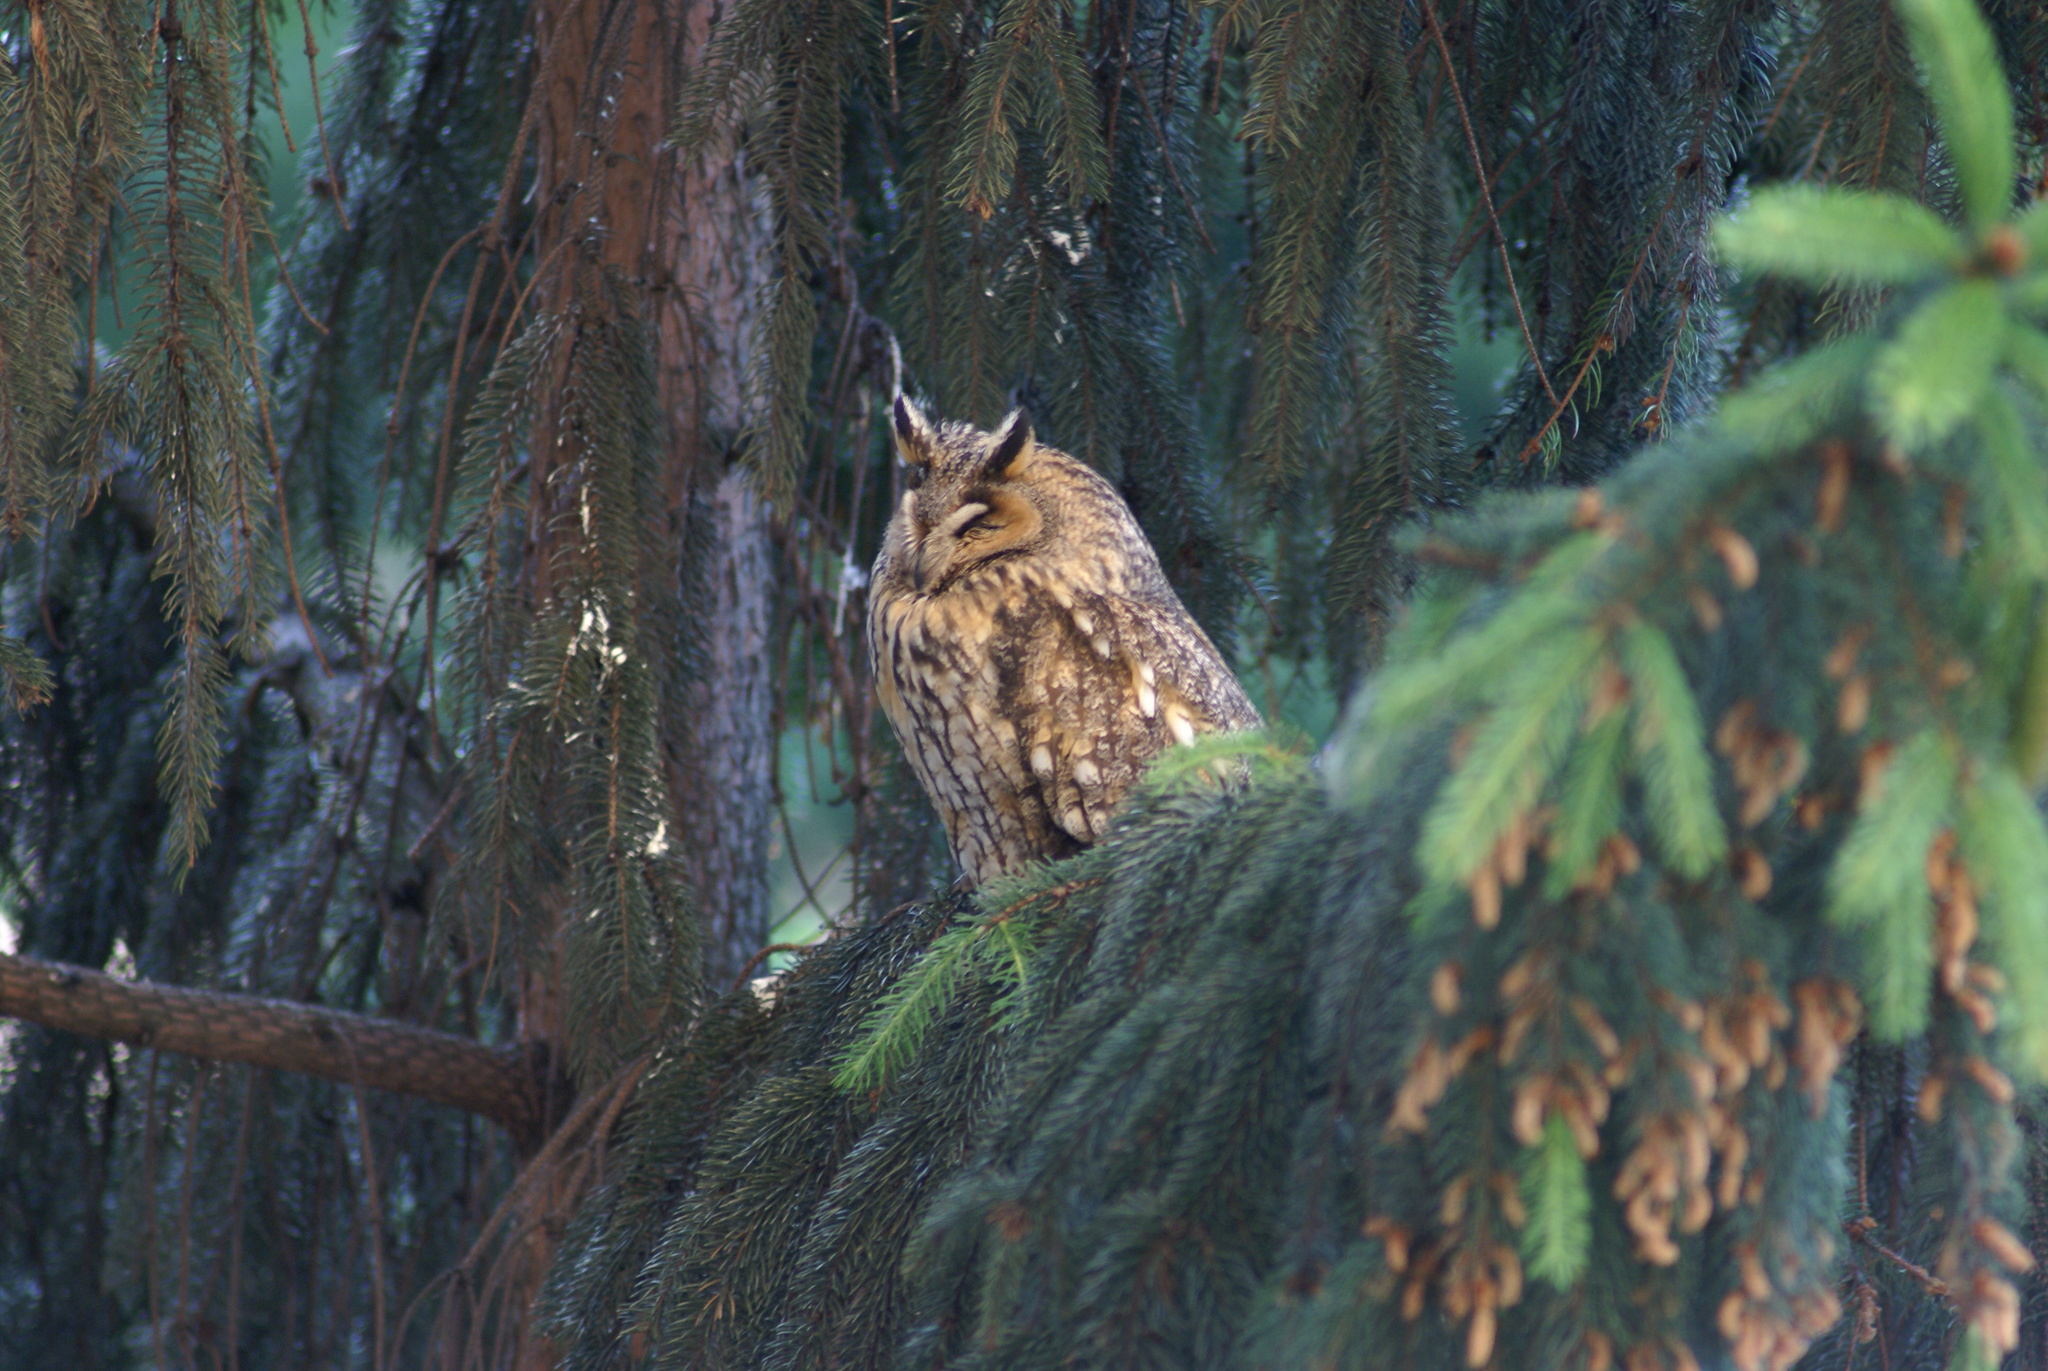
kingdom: Animalia
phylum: Chordata
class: Aves
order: Strigiformes
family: Strigidae
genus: Asio
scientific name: Asio otus
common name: Long-eared owl
